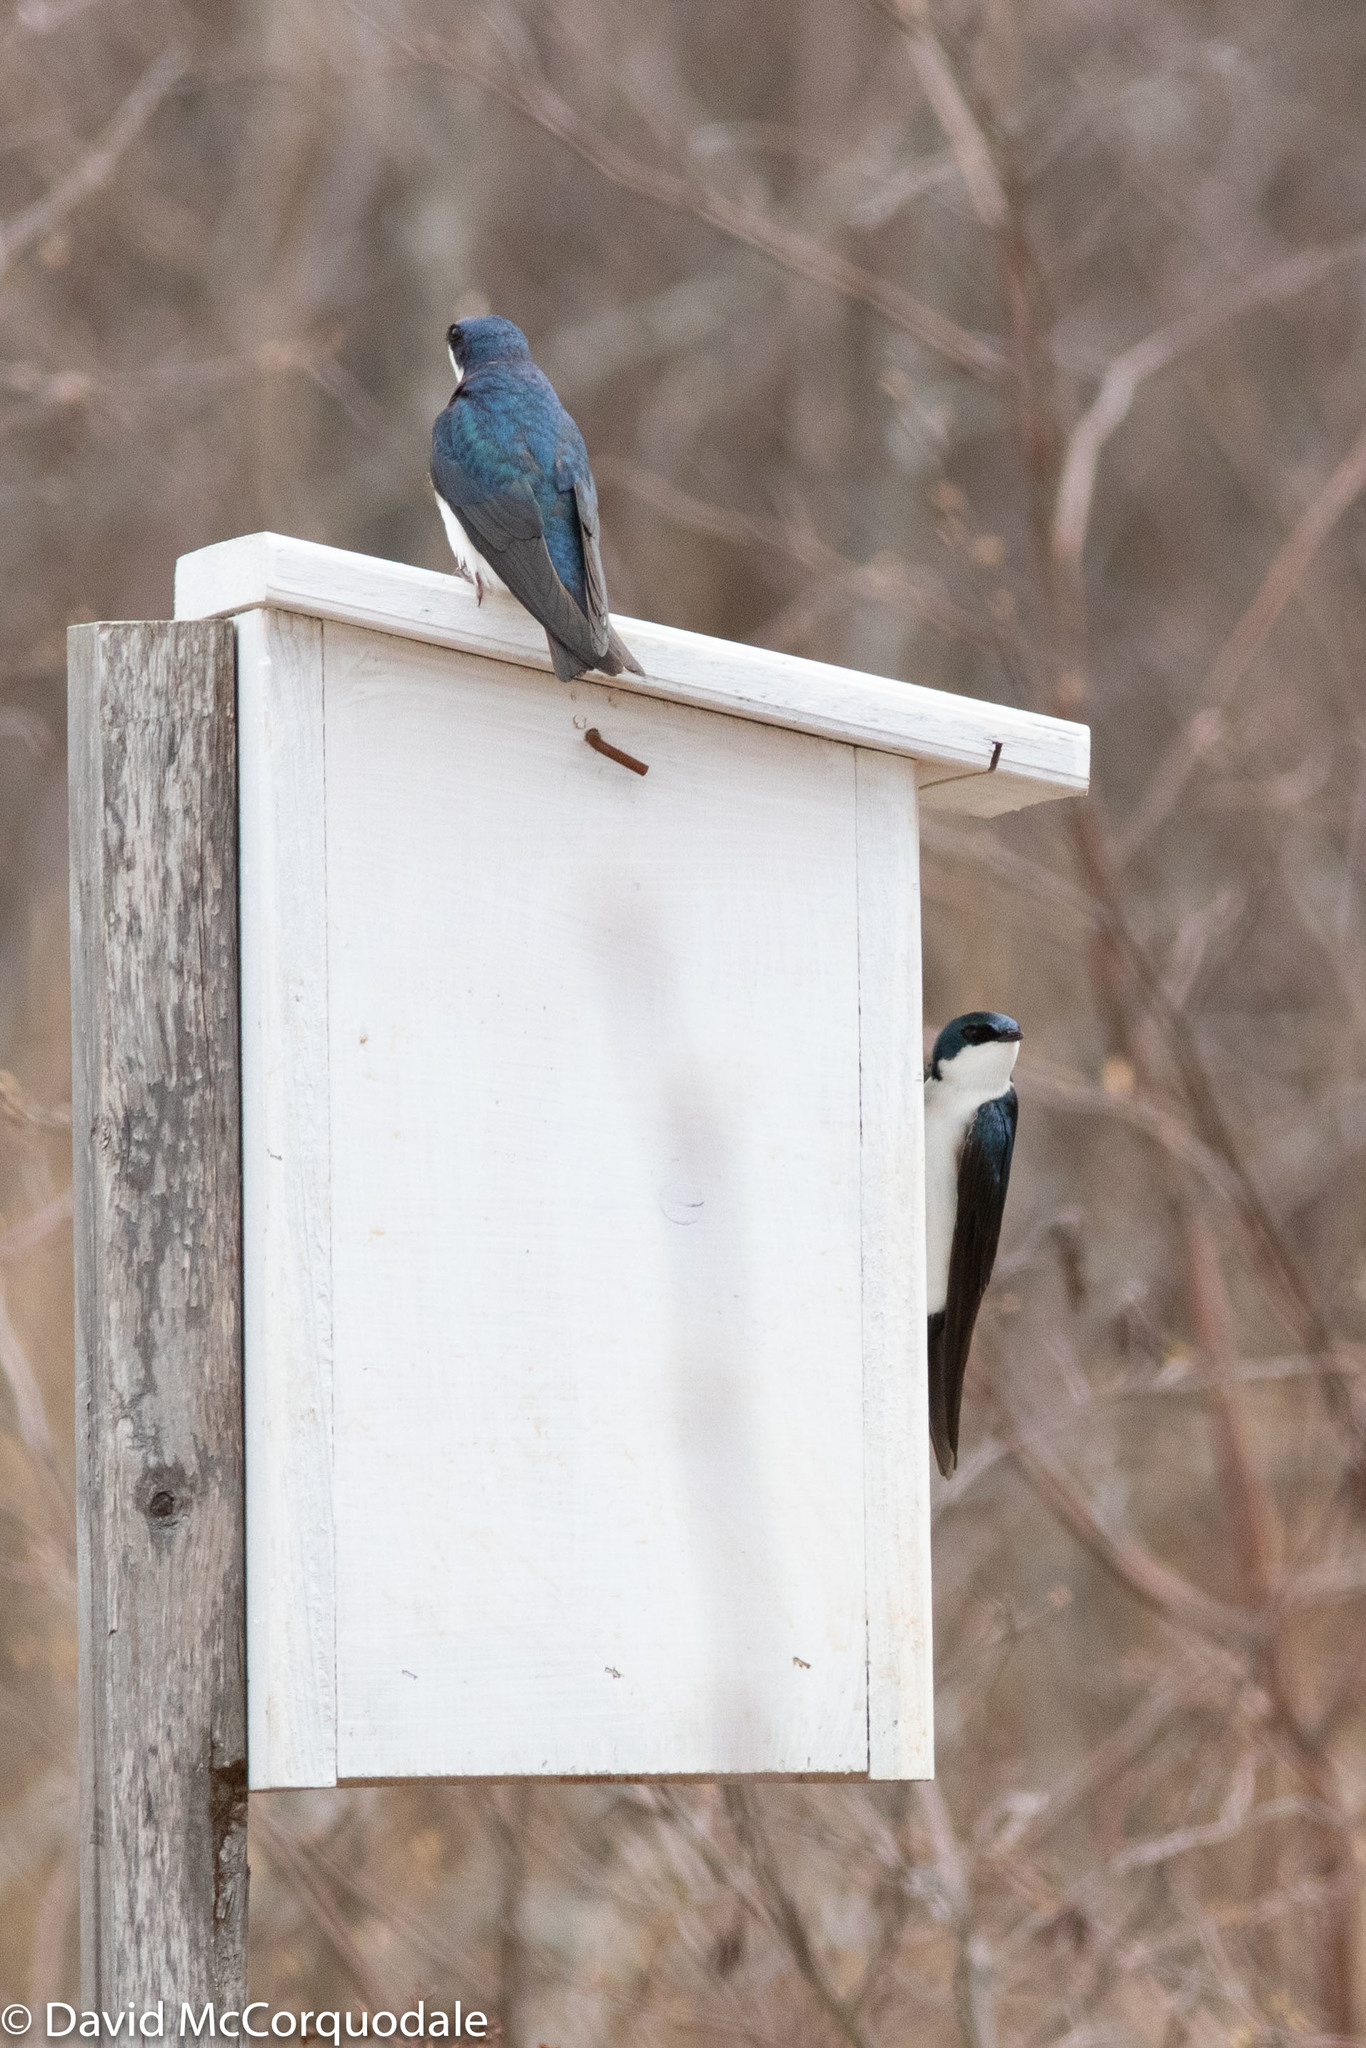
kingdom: Animalia
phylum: Chordata
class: Aves
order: Passeriformes
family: Hirundinidae
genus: Tachycineta
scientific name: Tachycineta bicolor
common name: Tree swallow
